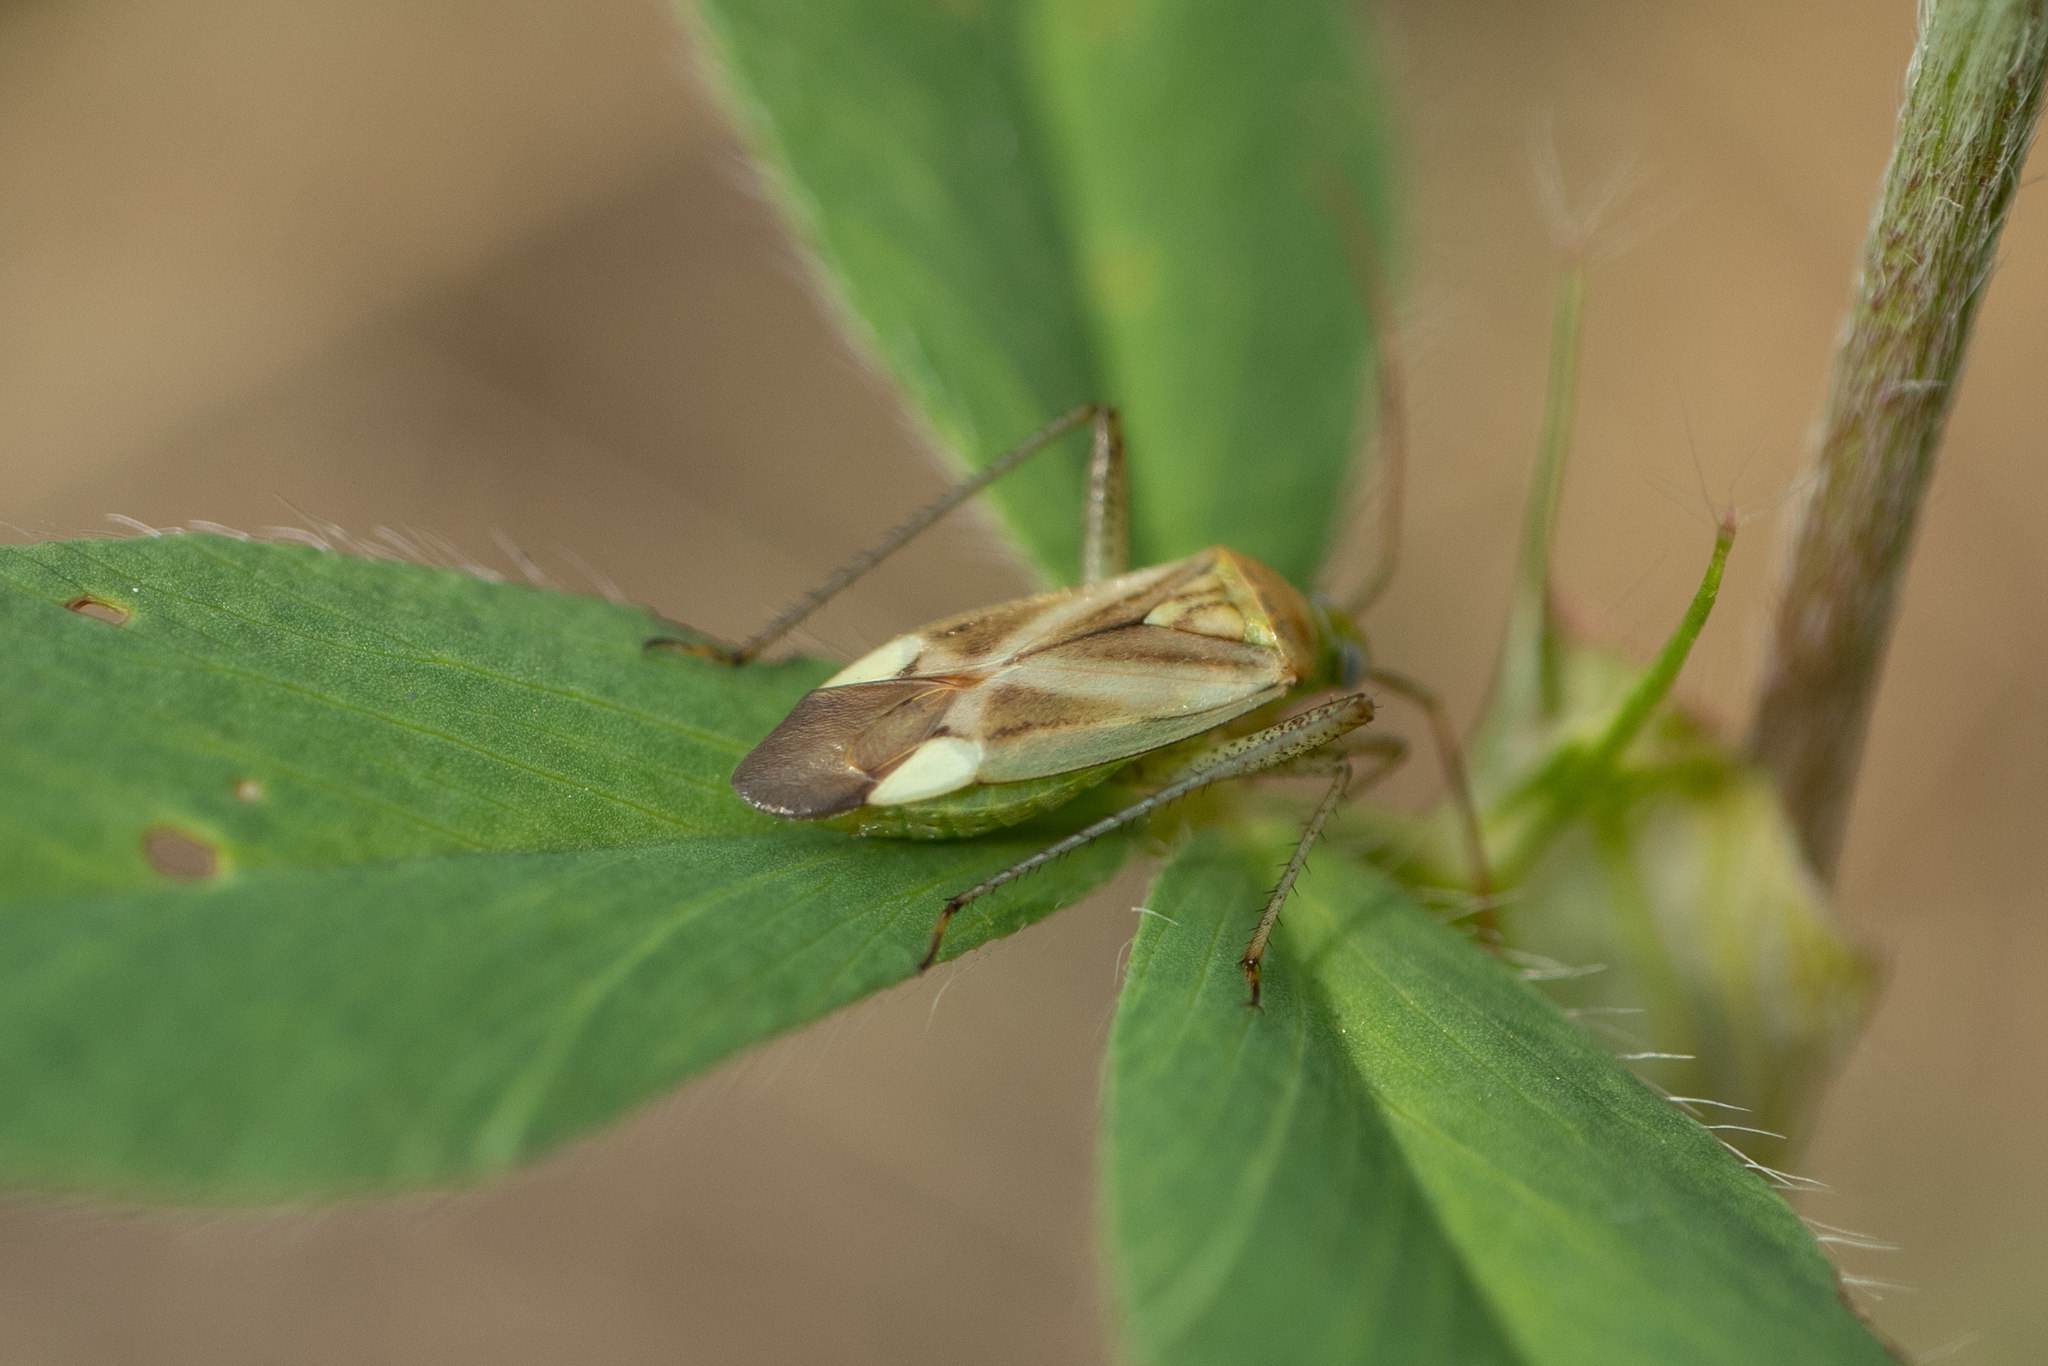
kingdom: Animalia
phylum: Arthropoda
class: Insecta
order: Hemiptera
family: Miridae
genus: Adelphocoris
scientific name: Adelphocoris lineolatus
